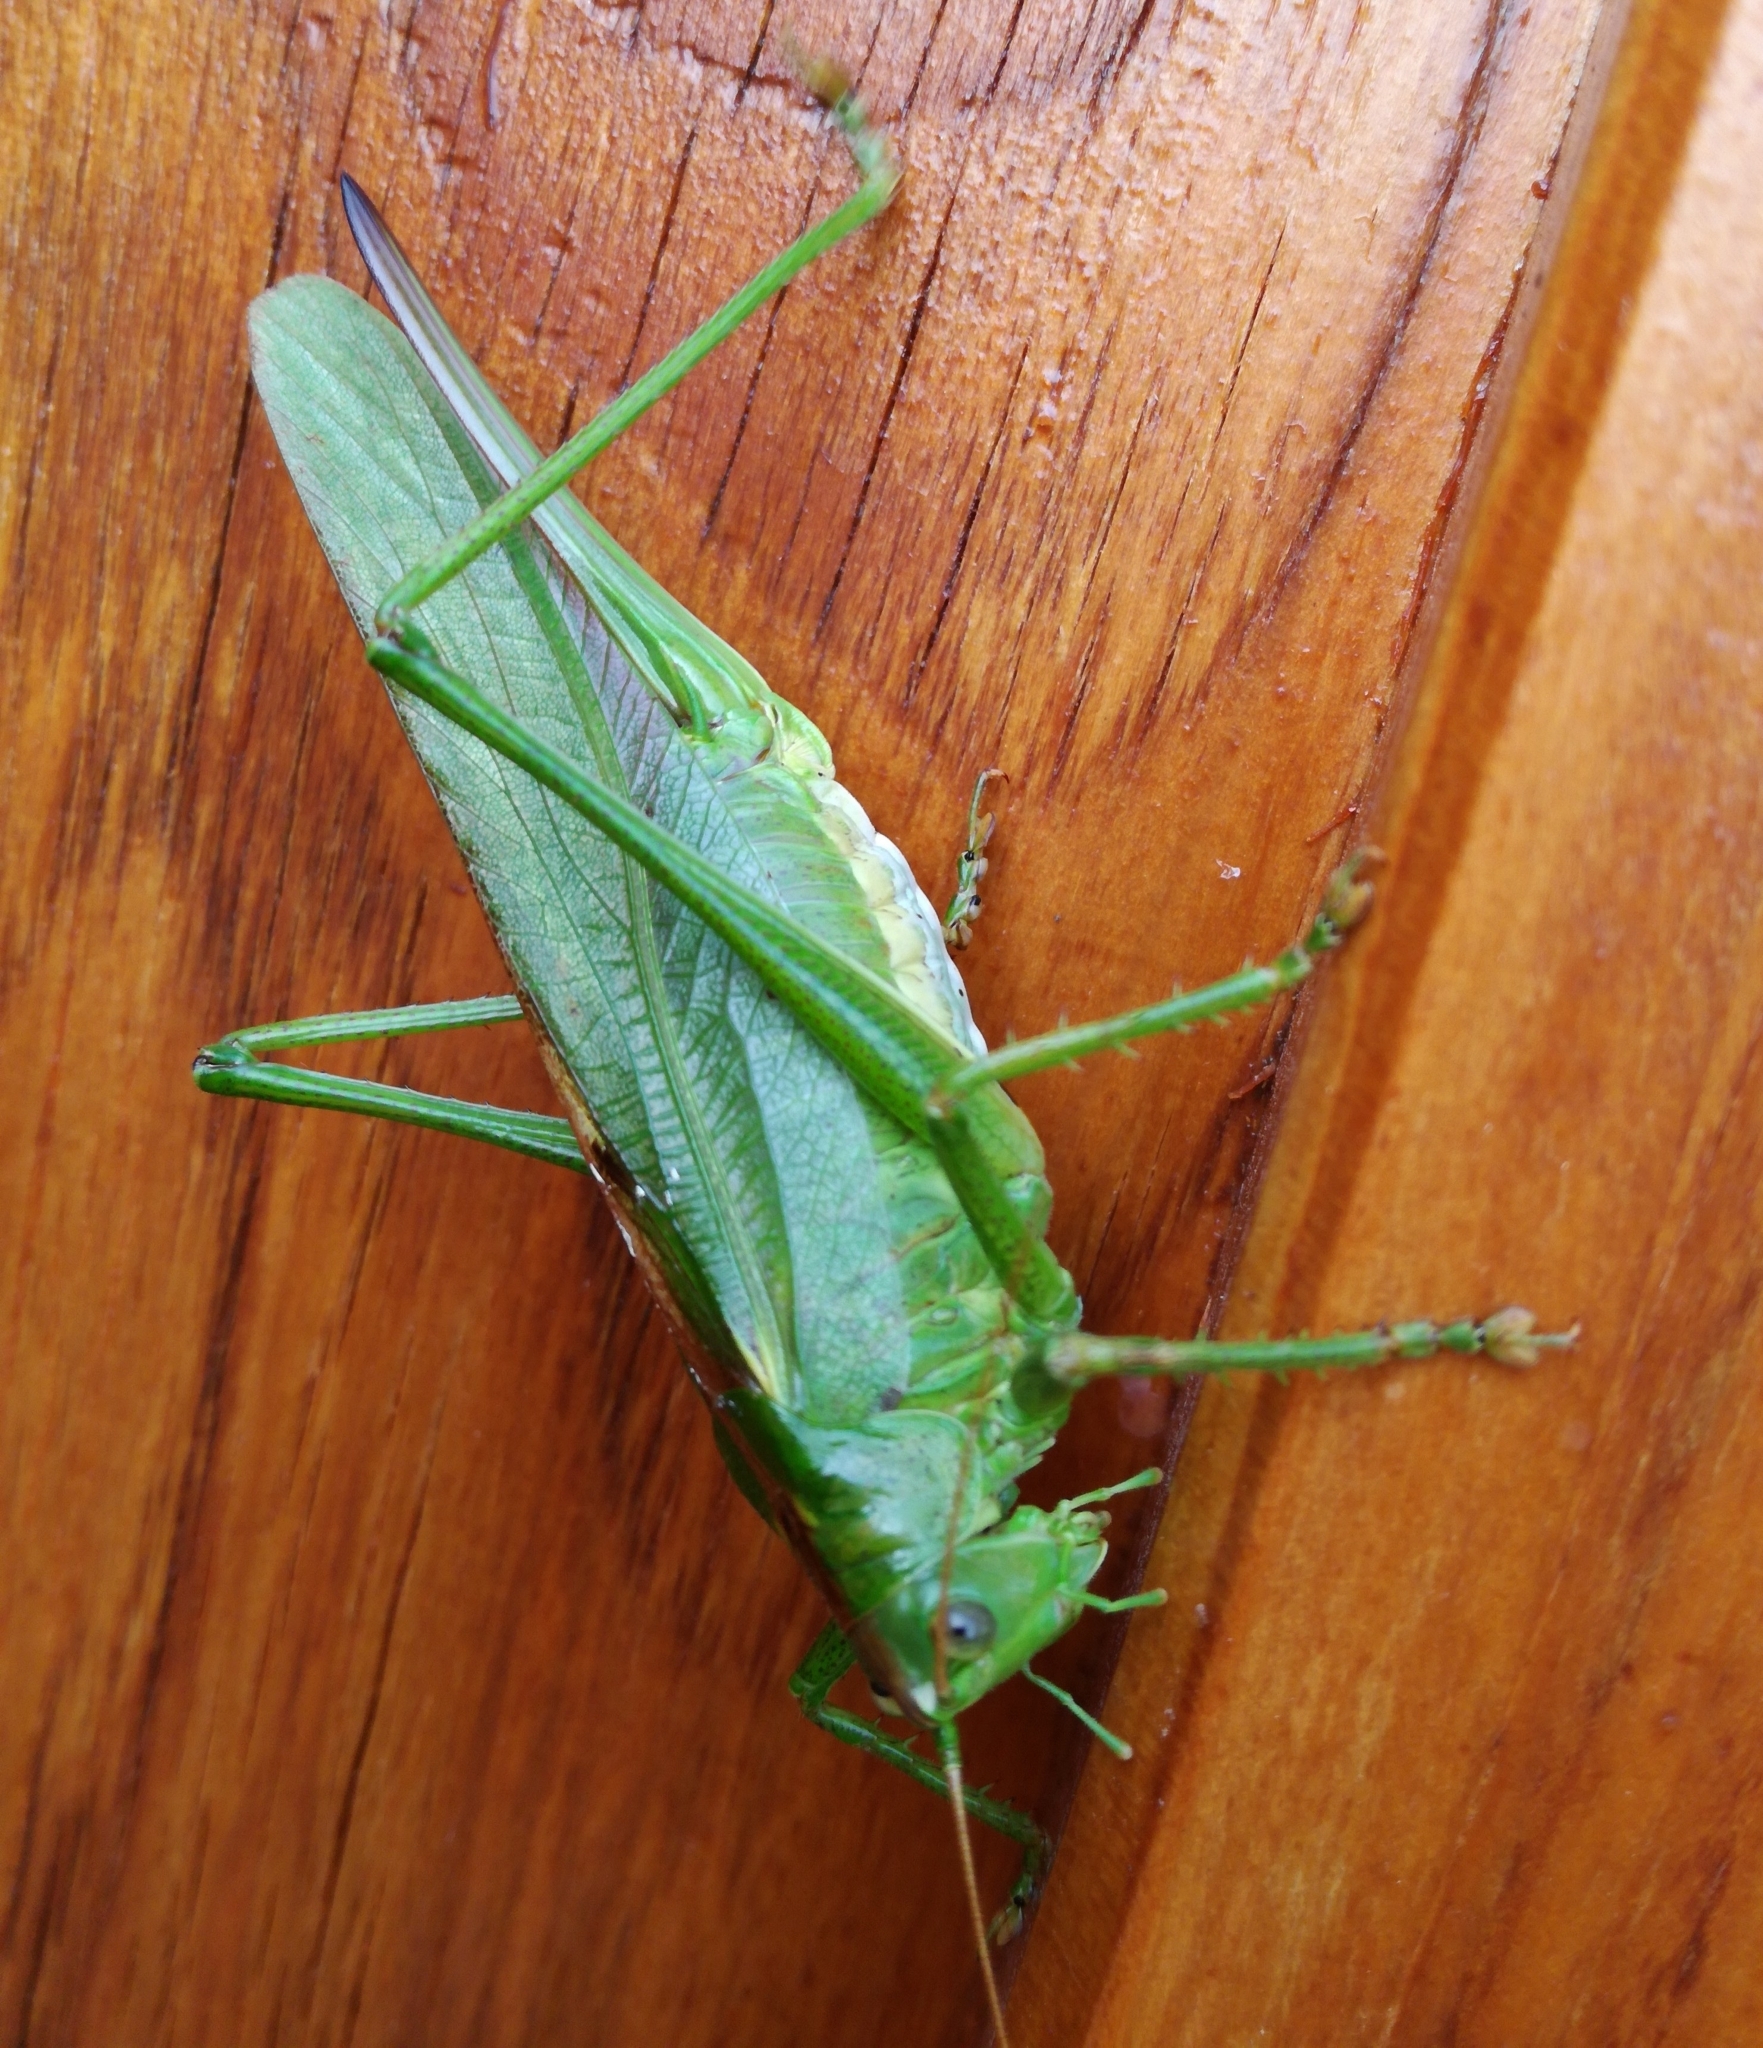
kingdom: Animalia
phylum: Arthropoda
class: Insecta
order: Orthoptera
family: Tettigoniidae
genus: Tettigonia
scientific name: Tettigonia viridissima
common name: Great green bush-cricket
